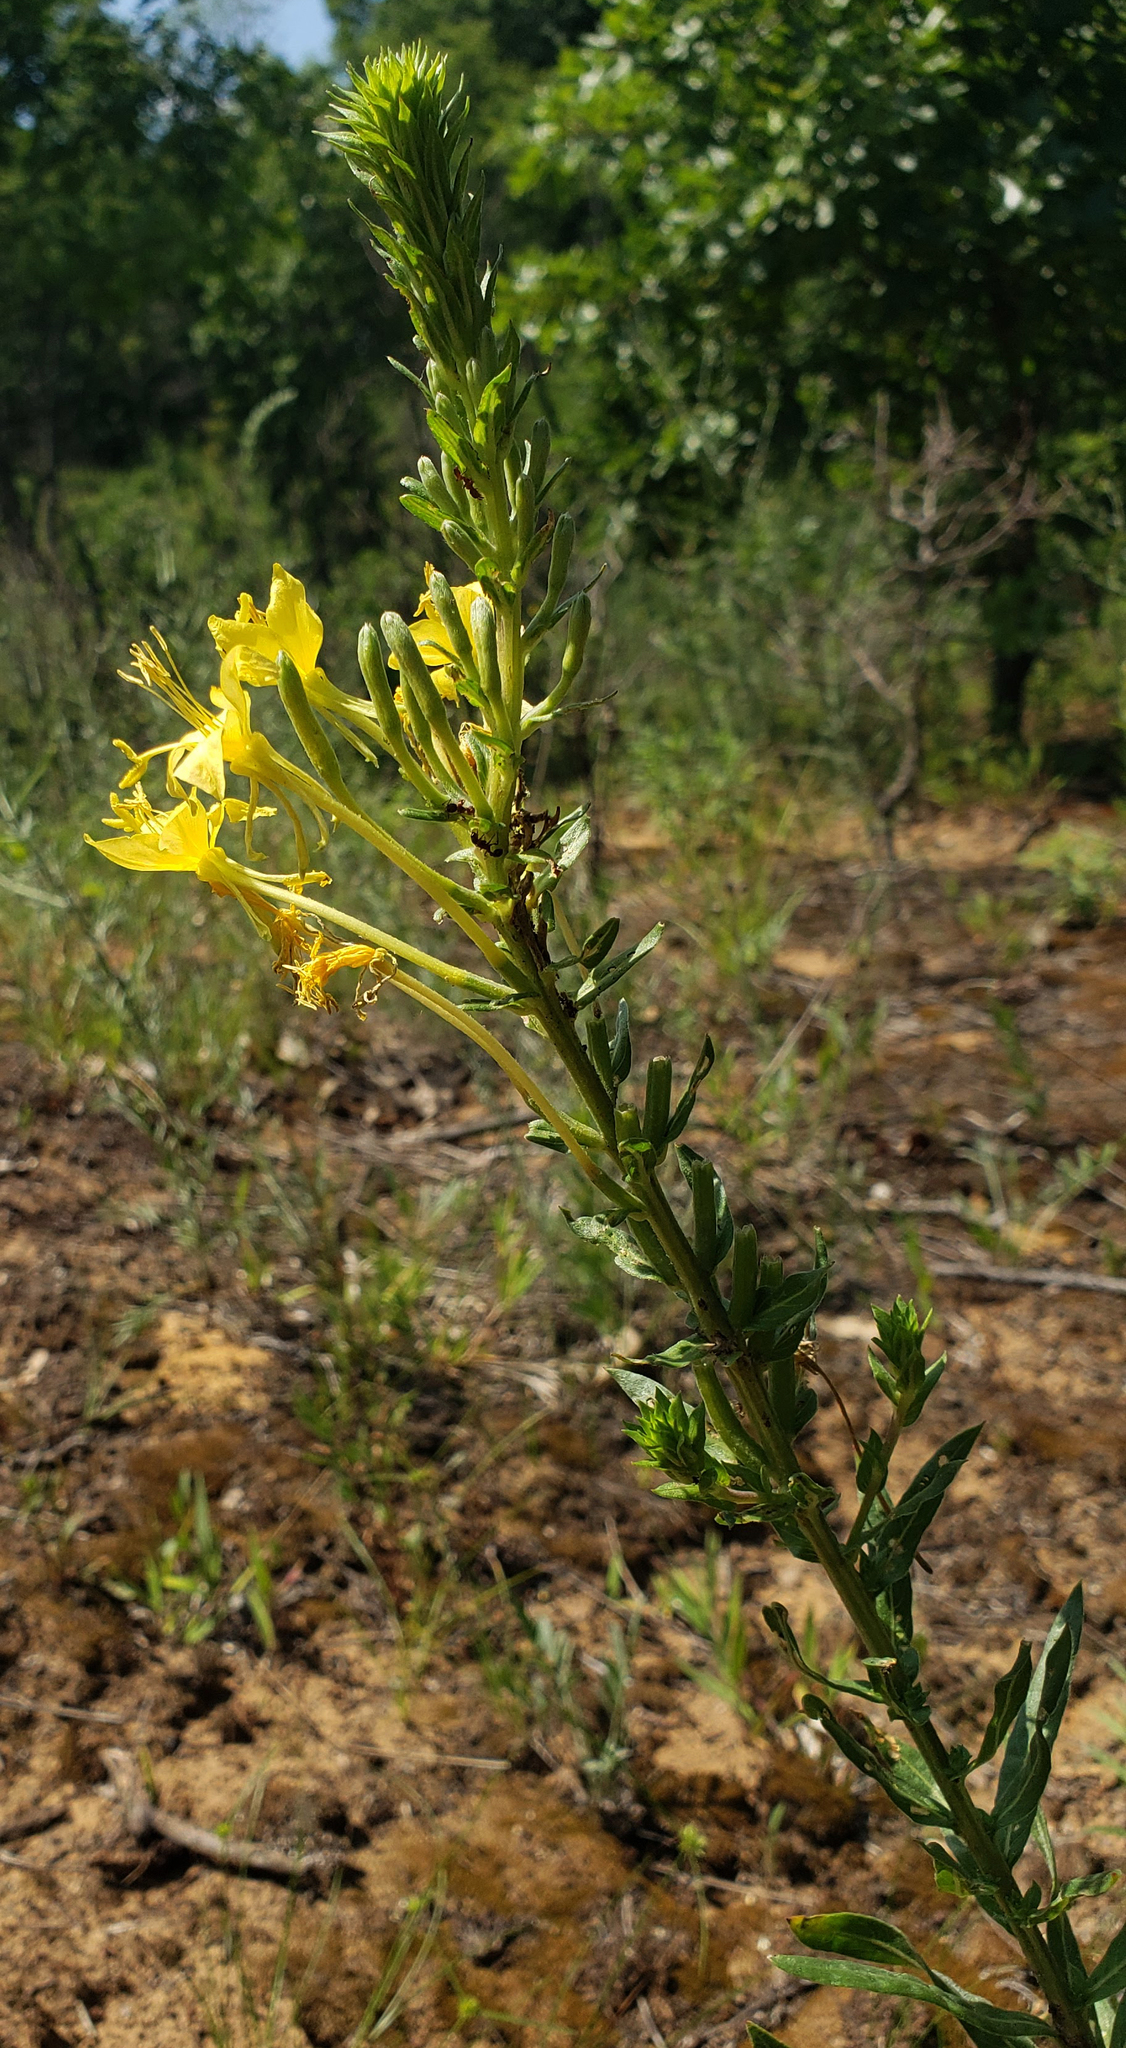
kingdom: Plantae
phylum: Tracheophyta
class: Magnoliopsida
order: Myrtales
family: Onagraceae
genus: Oenothera
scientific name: Oenothera clelandii
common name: Cleland's evening-primrose
